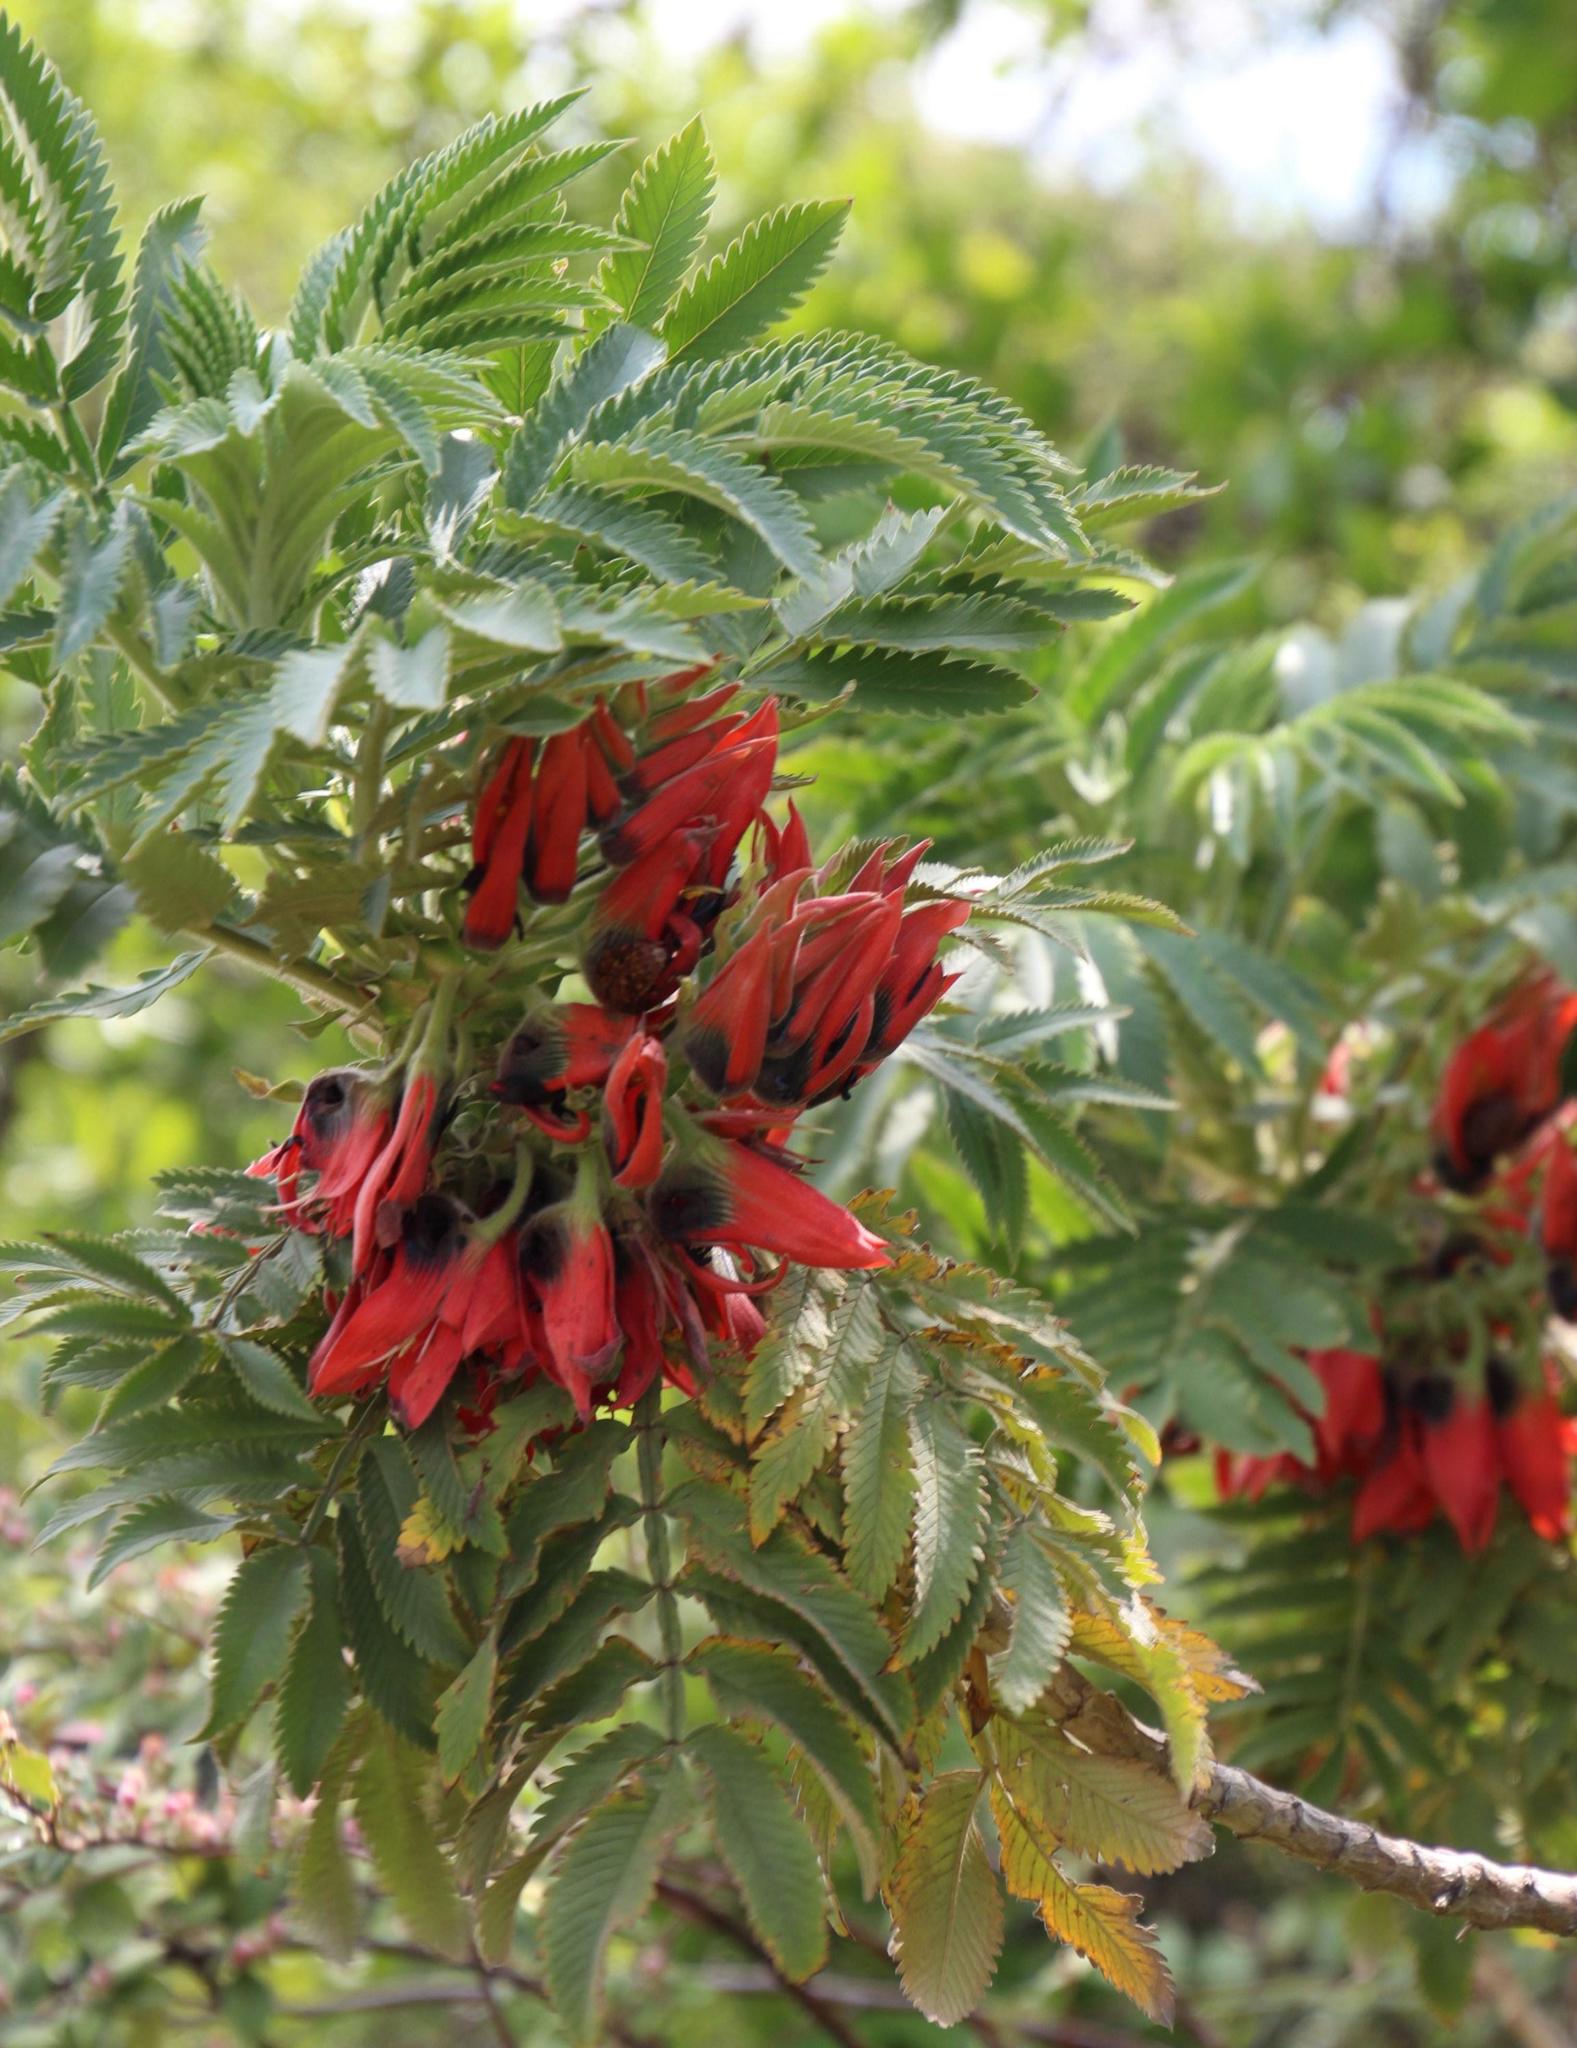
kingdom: Plantae
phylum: Tracheophyta
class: Magnoliopsida
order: Geraniales
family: Melianthaceae
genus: Melianthus
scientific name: Melianthus dregeanus
